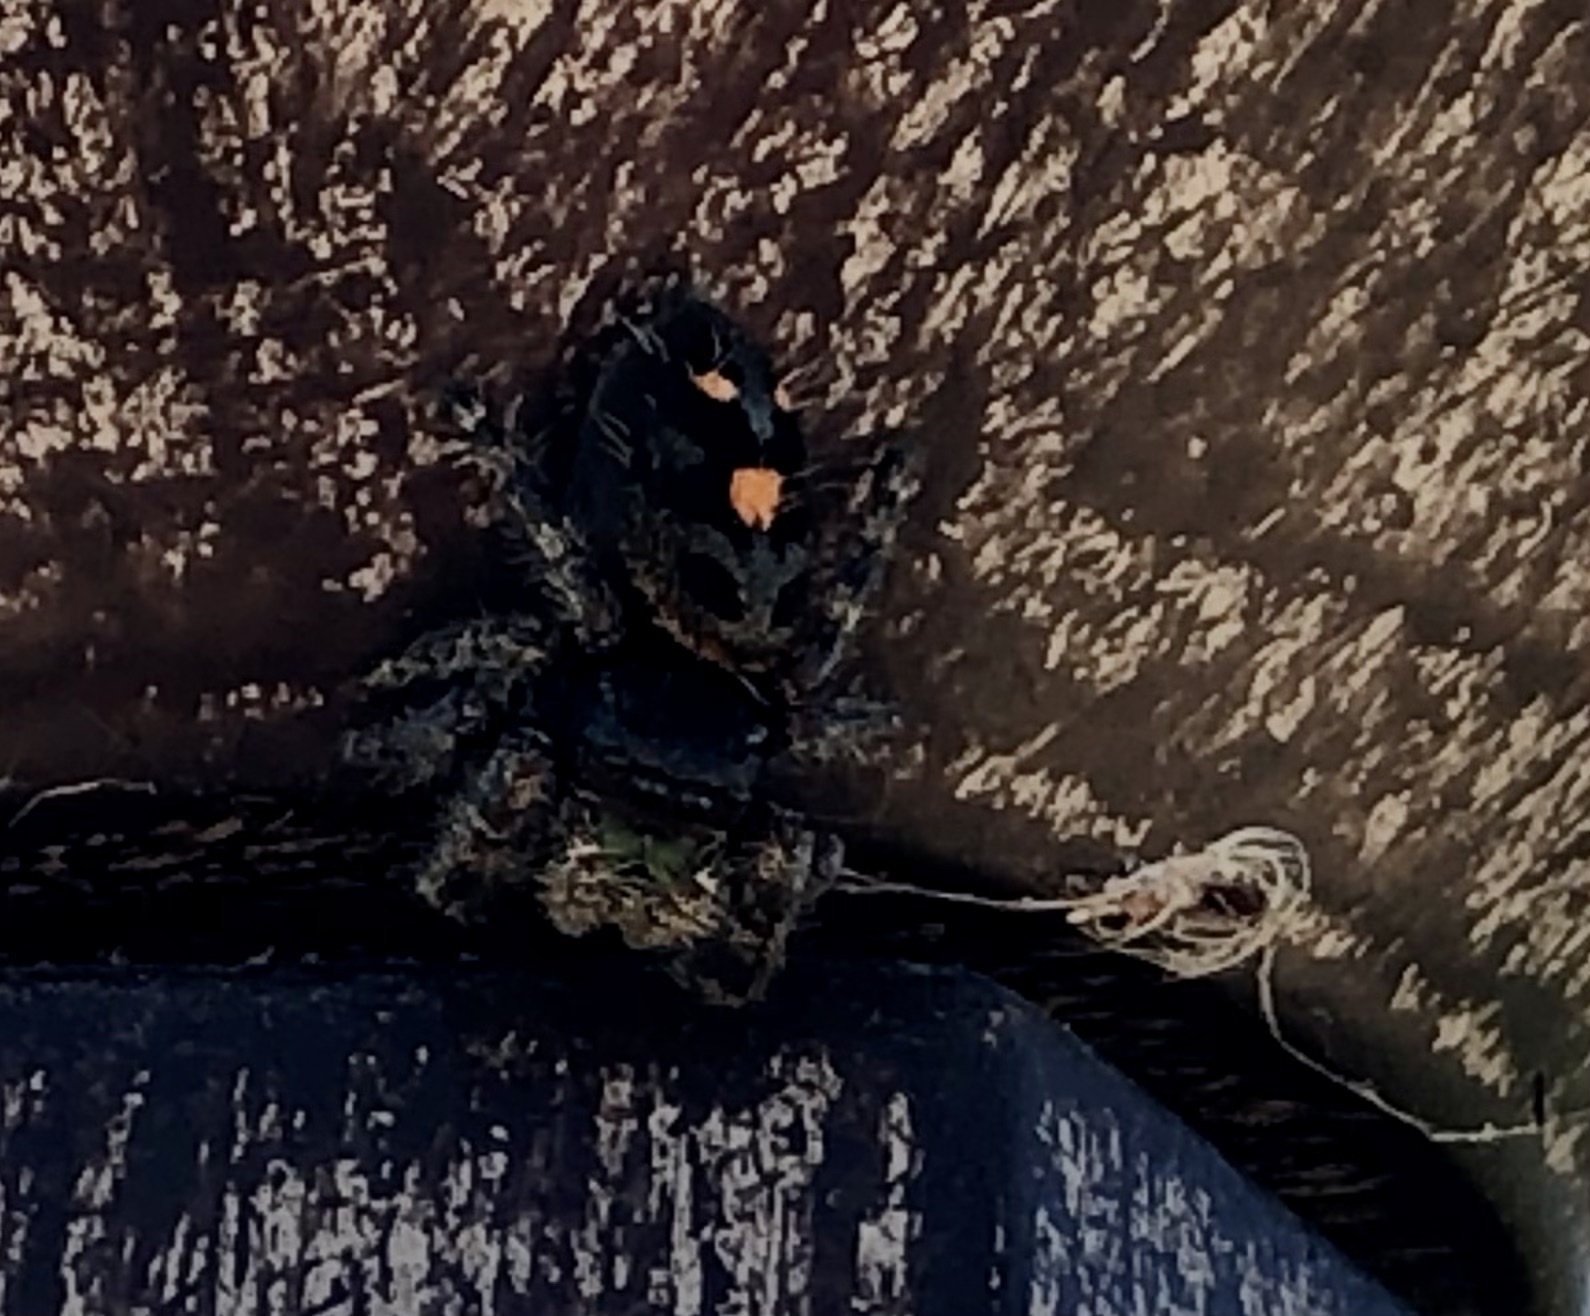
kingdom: Animalia
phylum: Arthropoda
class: Arachnida
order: Araneae
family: Salticidae
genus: Phidippus
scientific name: Phidippus audax
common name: Bold jumper
